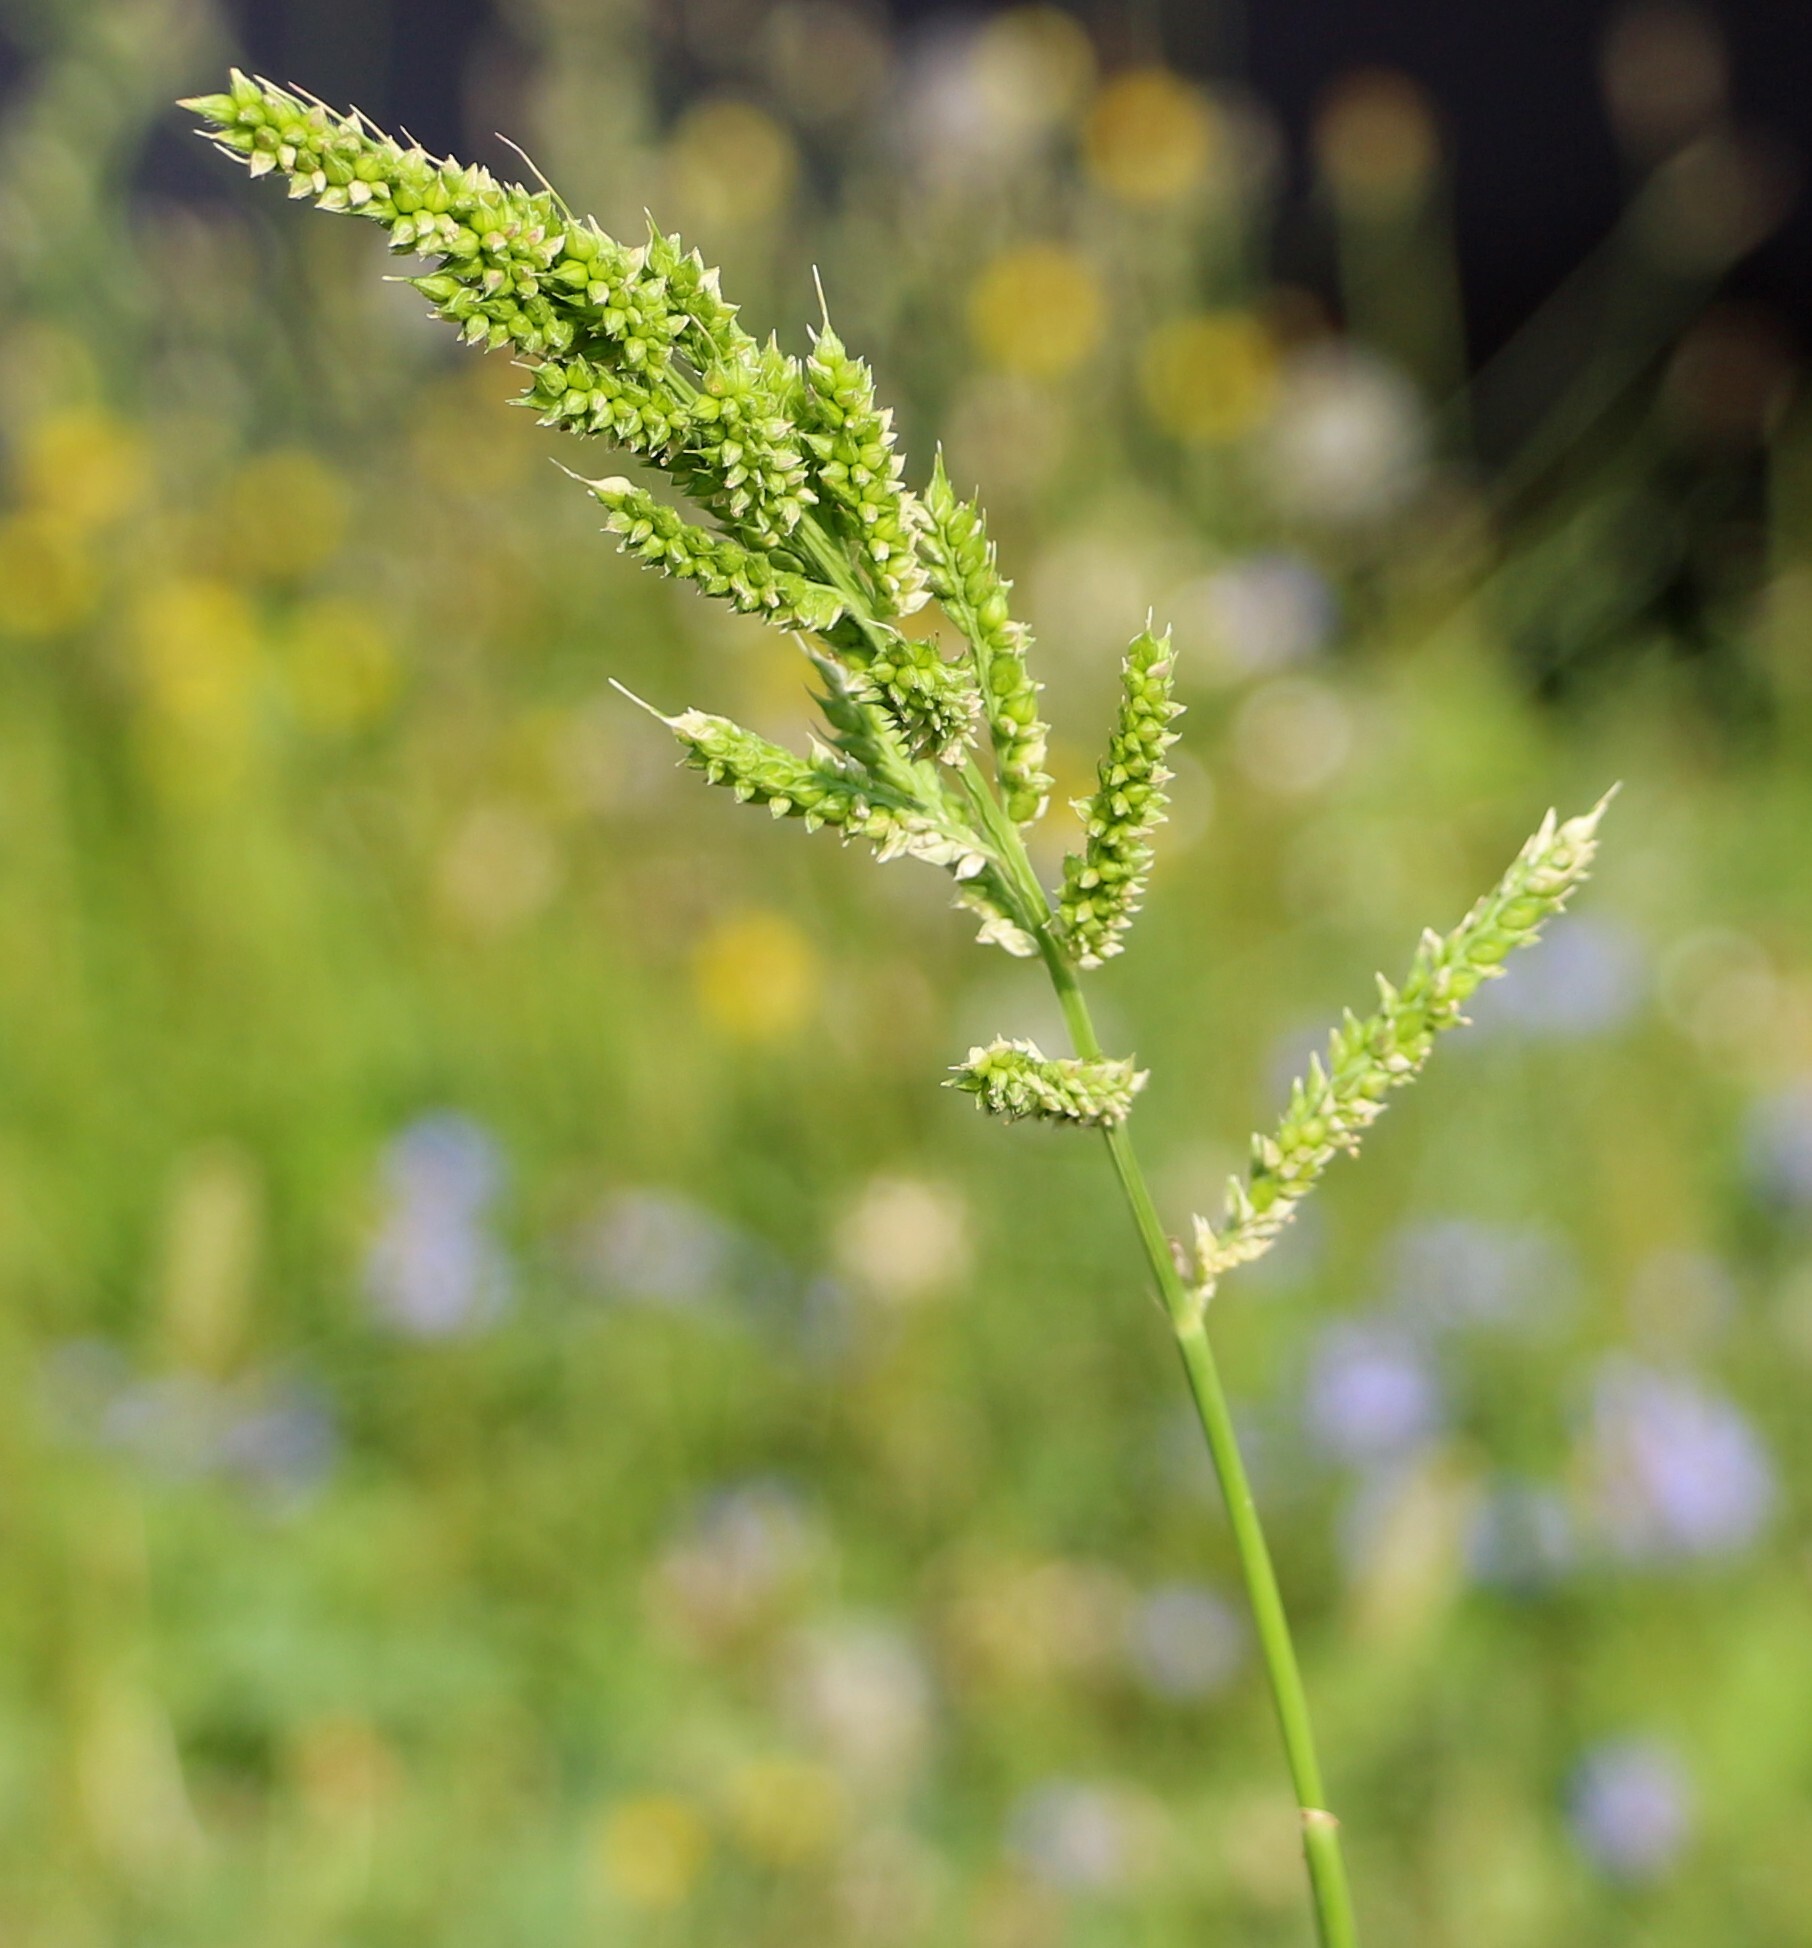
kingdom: Plantae
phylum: Tracheophyta
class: Liliopsida
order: Poales
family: Poaceae
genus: Echinochloa
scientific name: Echinochloa crus-galli
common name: Cockspur
